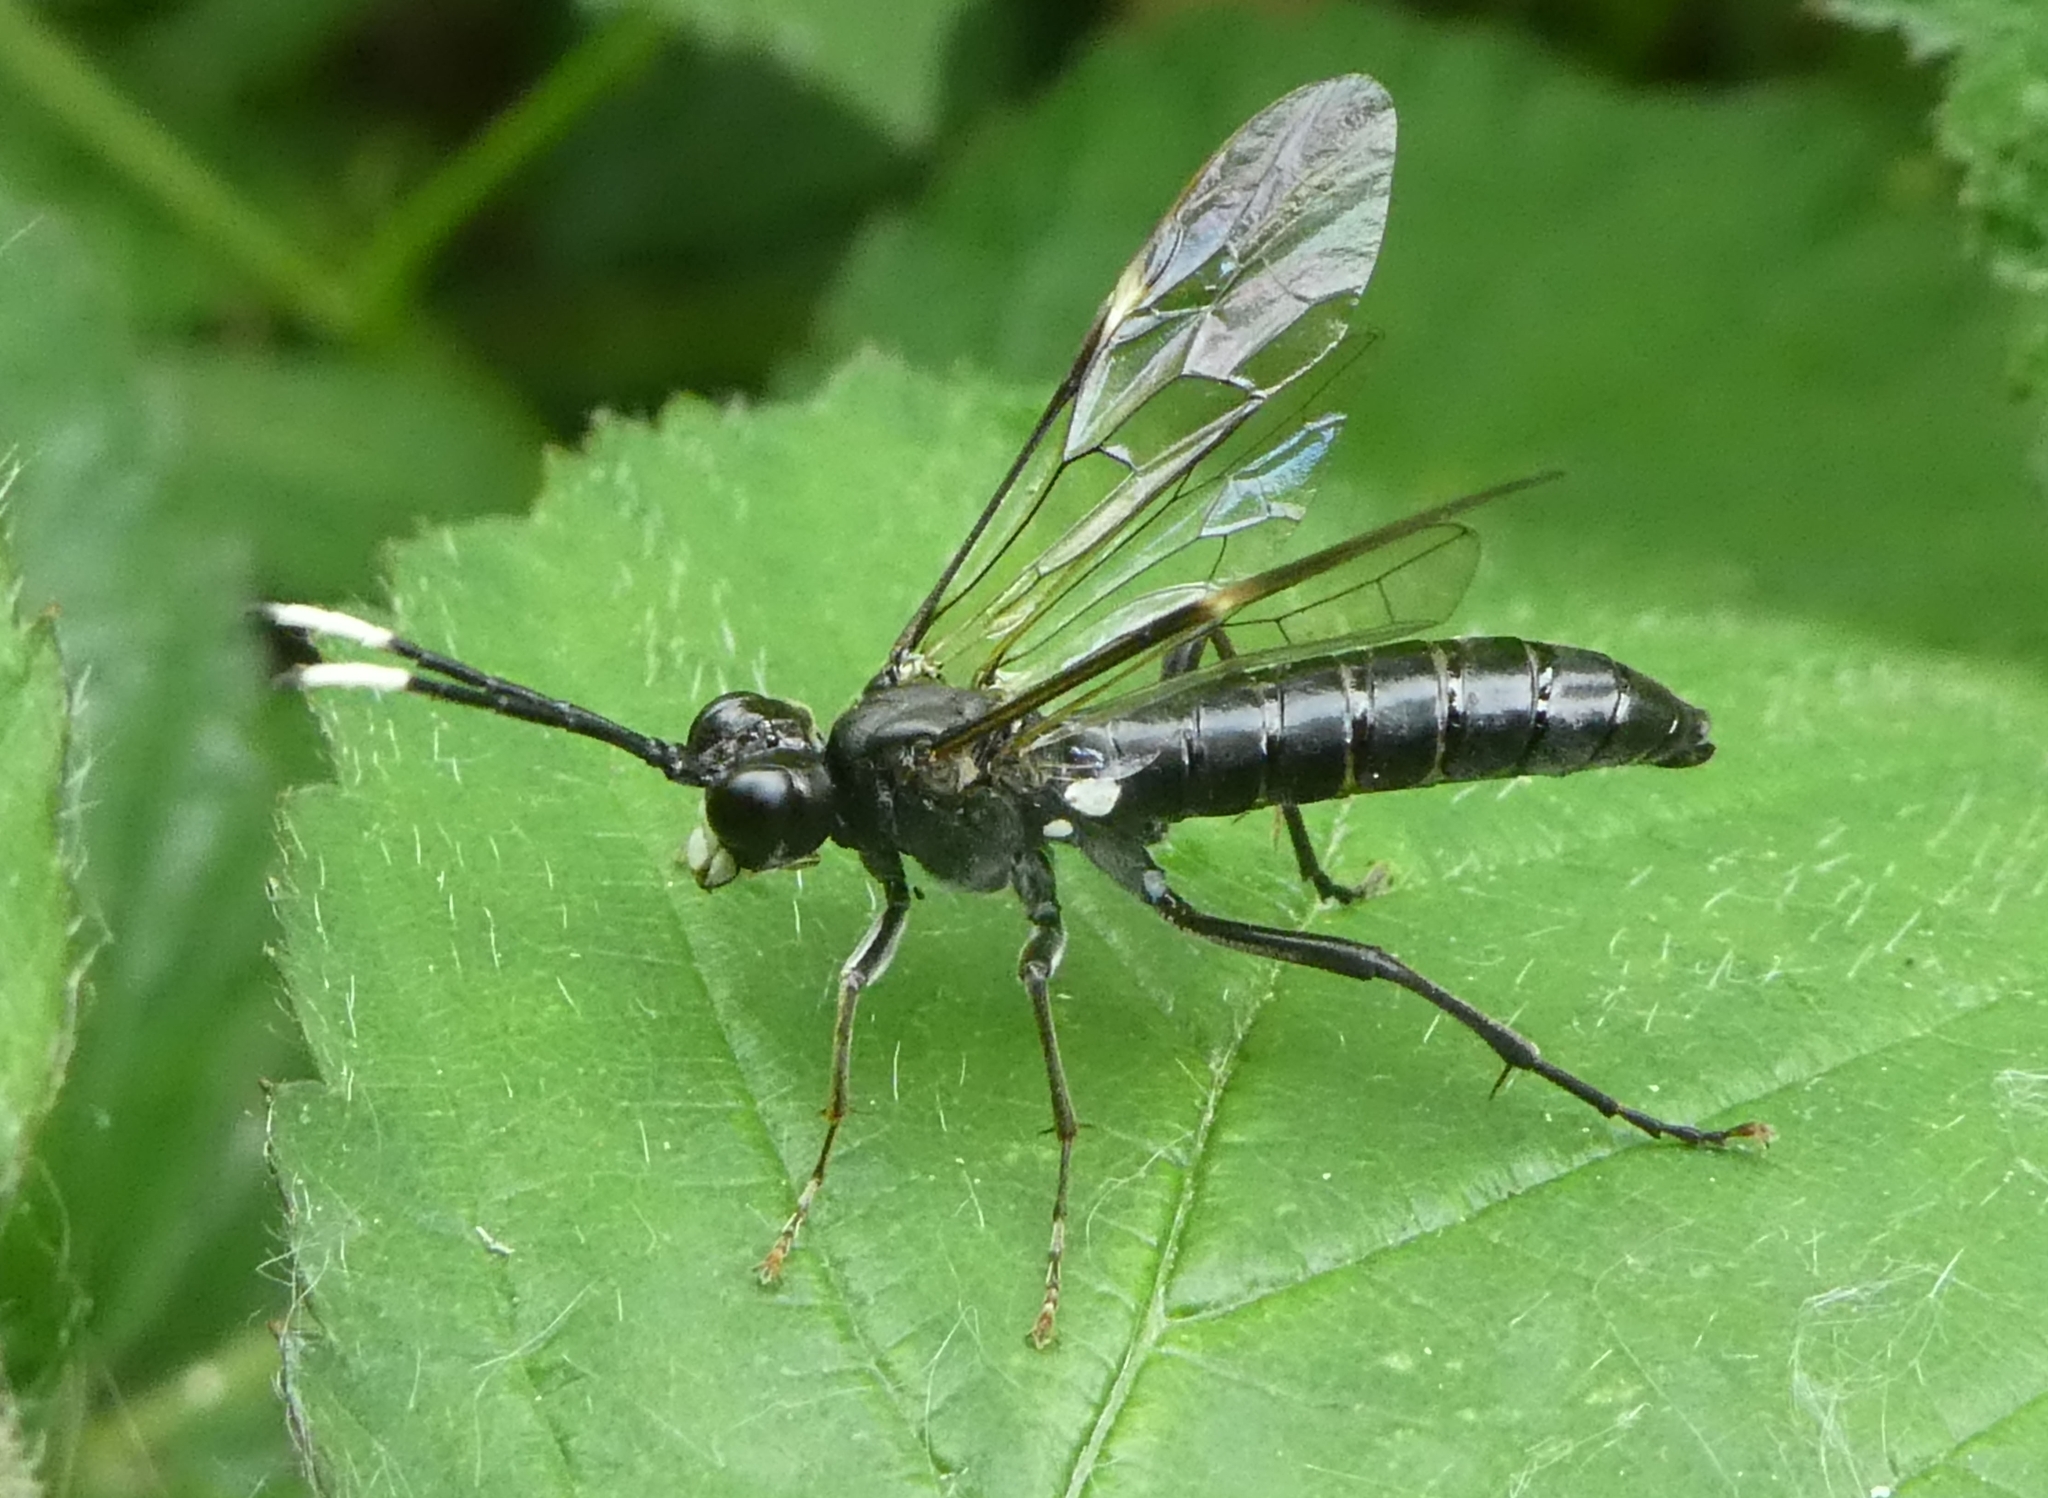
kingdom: Animalia
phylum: Arthropoda
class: Insecta
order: Hymenoptera
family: Tenthredinidae
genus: Tenthredo
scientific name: Tenthredo livida
